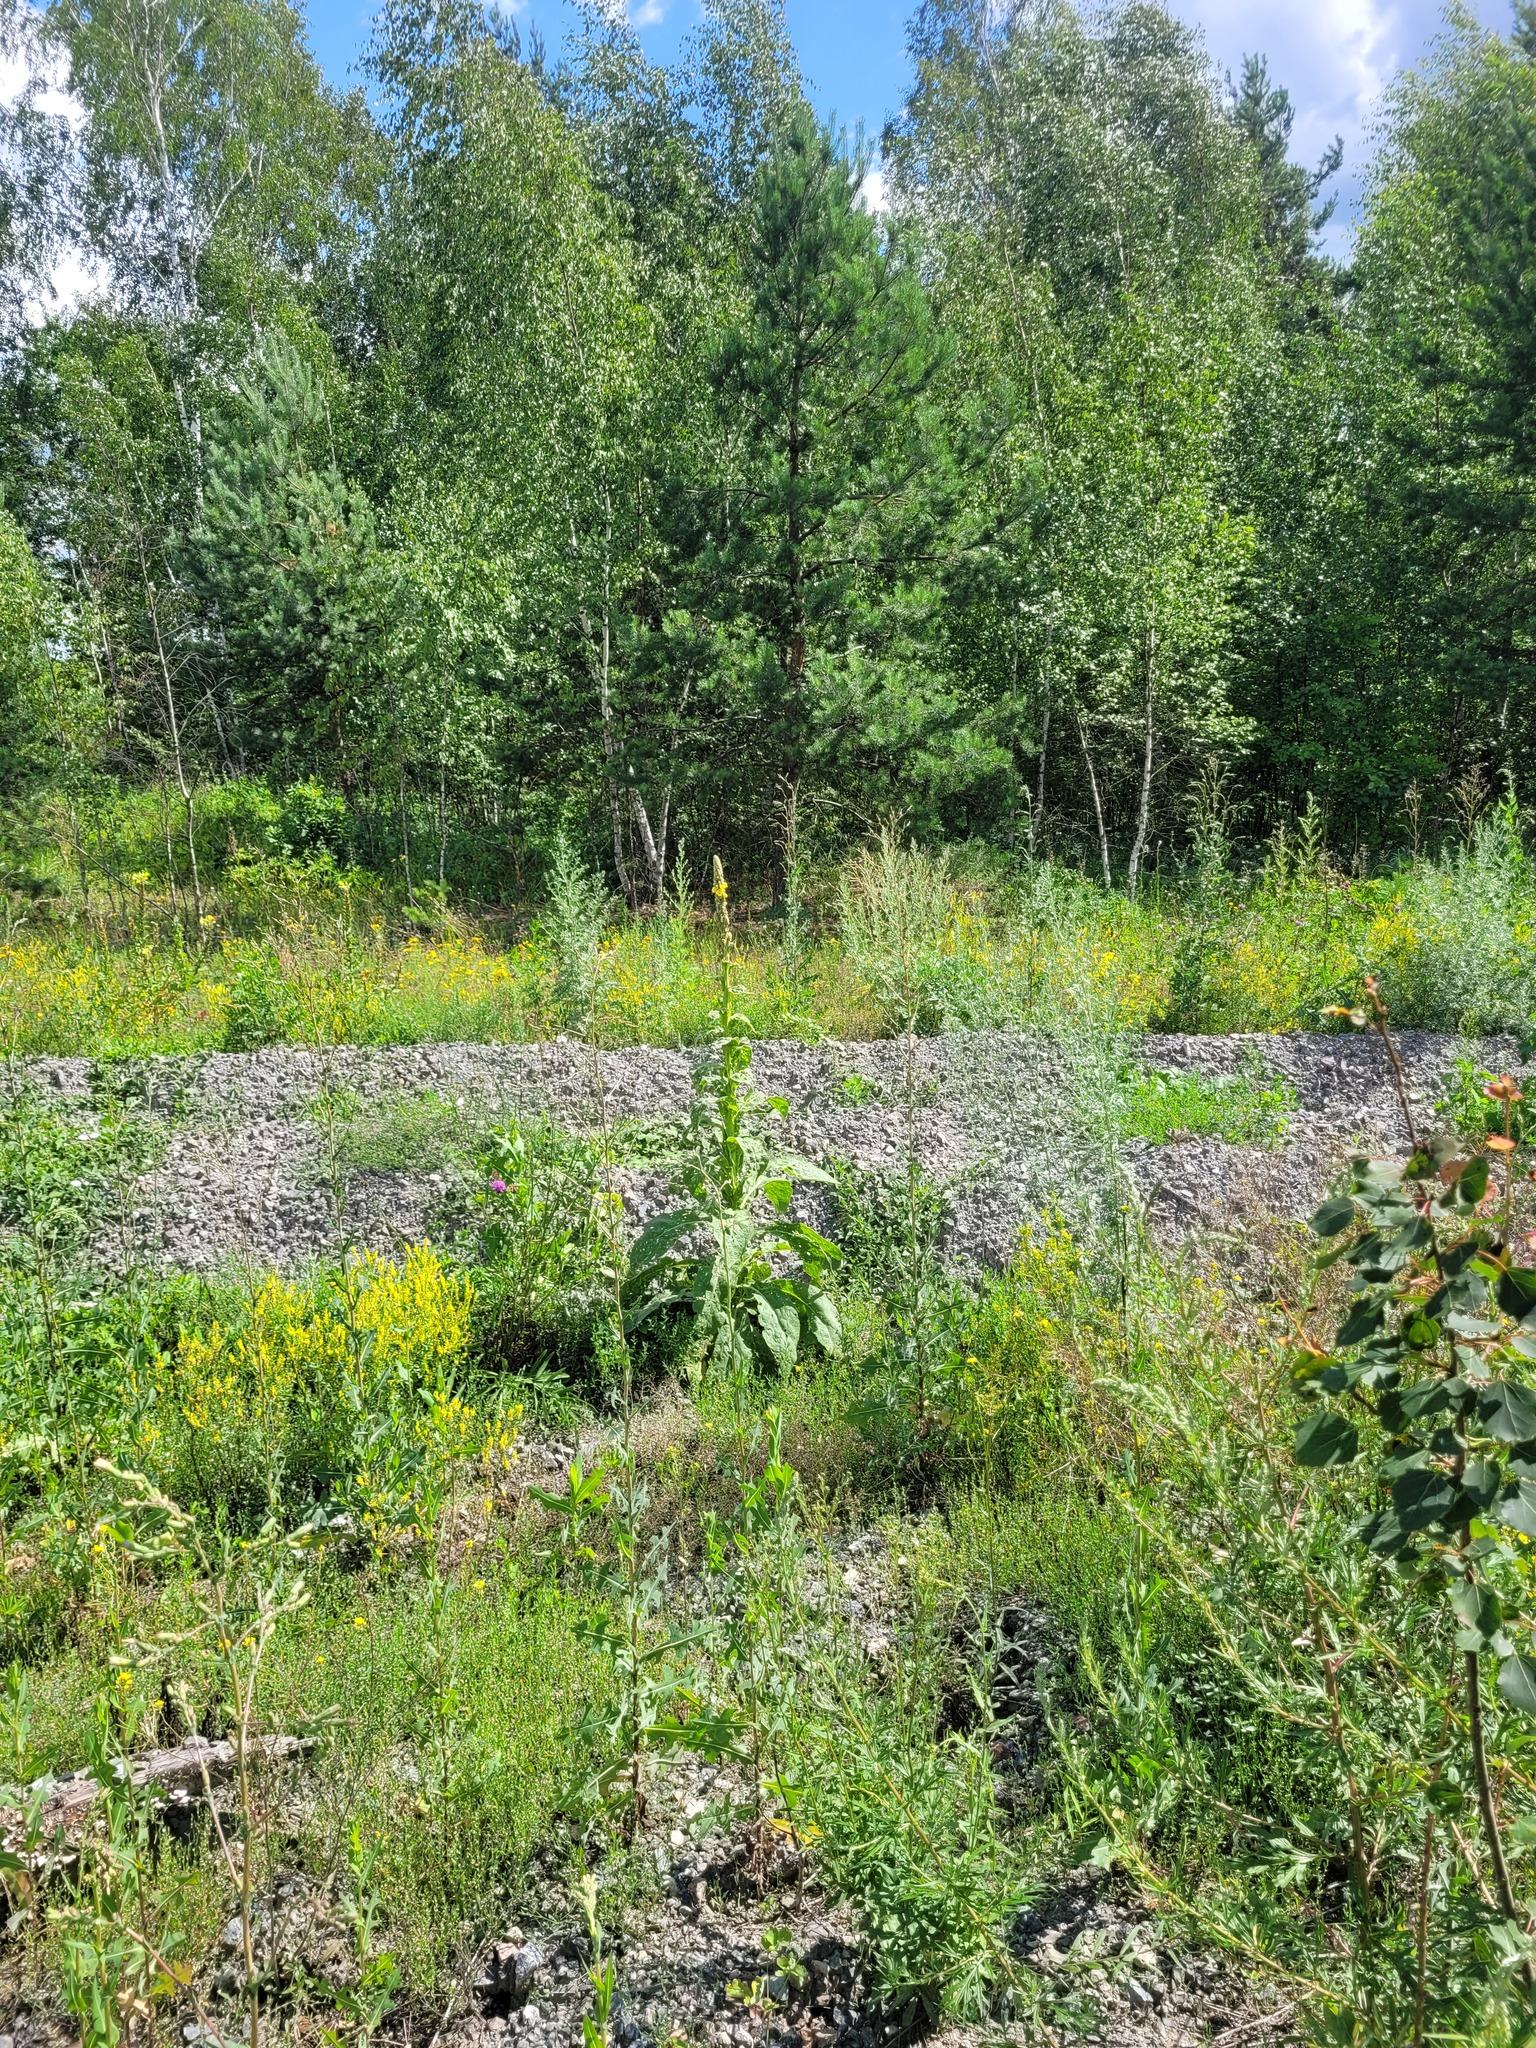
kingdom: Plantae
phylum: Tracheophyta
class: Magnoliopsida
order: Lamiales
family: Scrophulariaceae
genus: Verbascum
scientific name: Verbascum thapsus
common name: Common mullein
